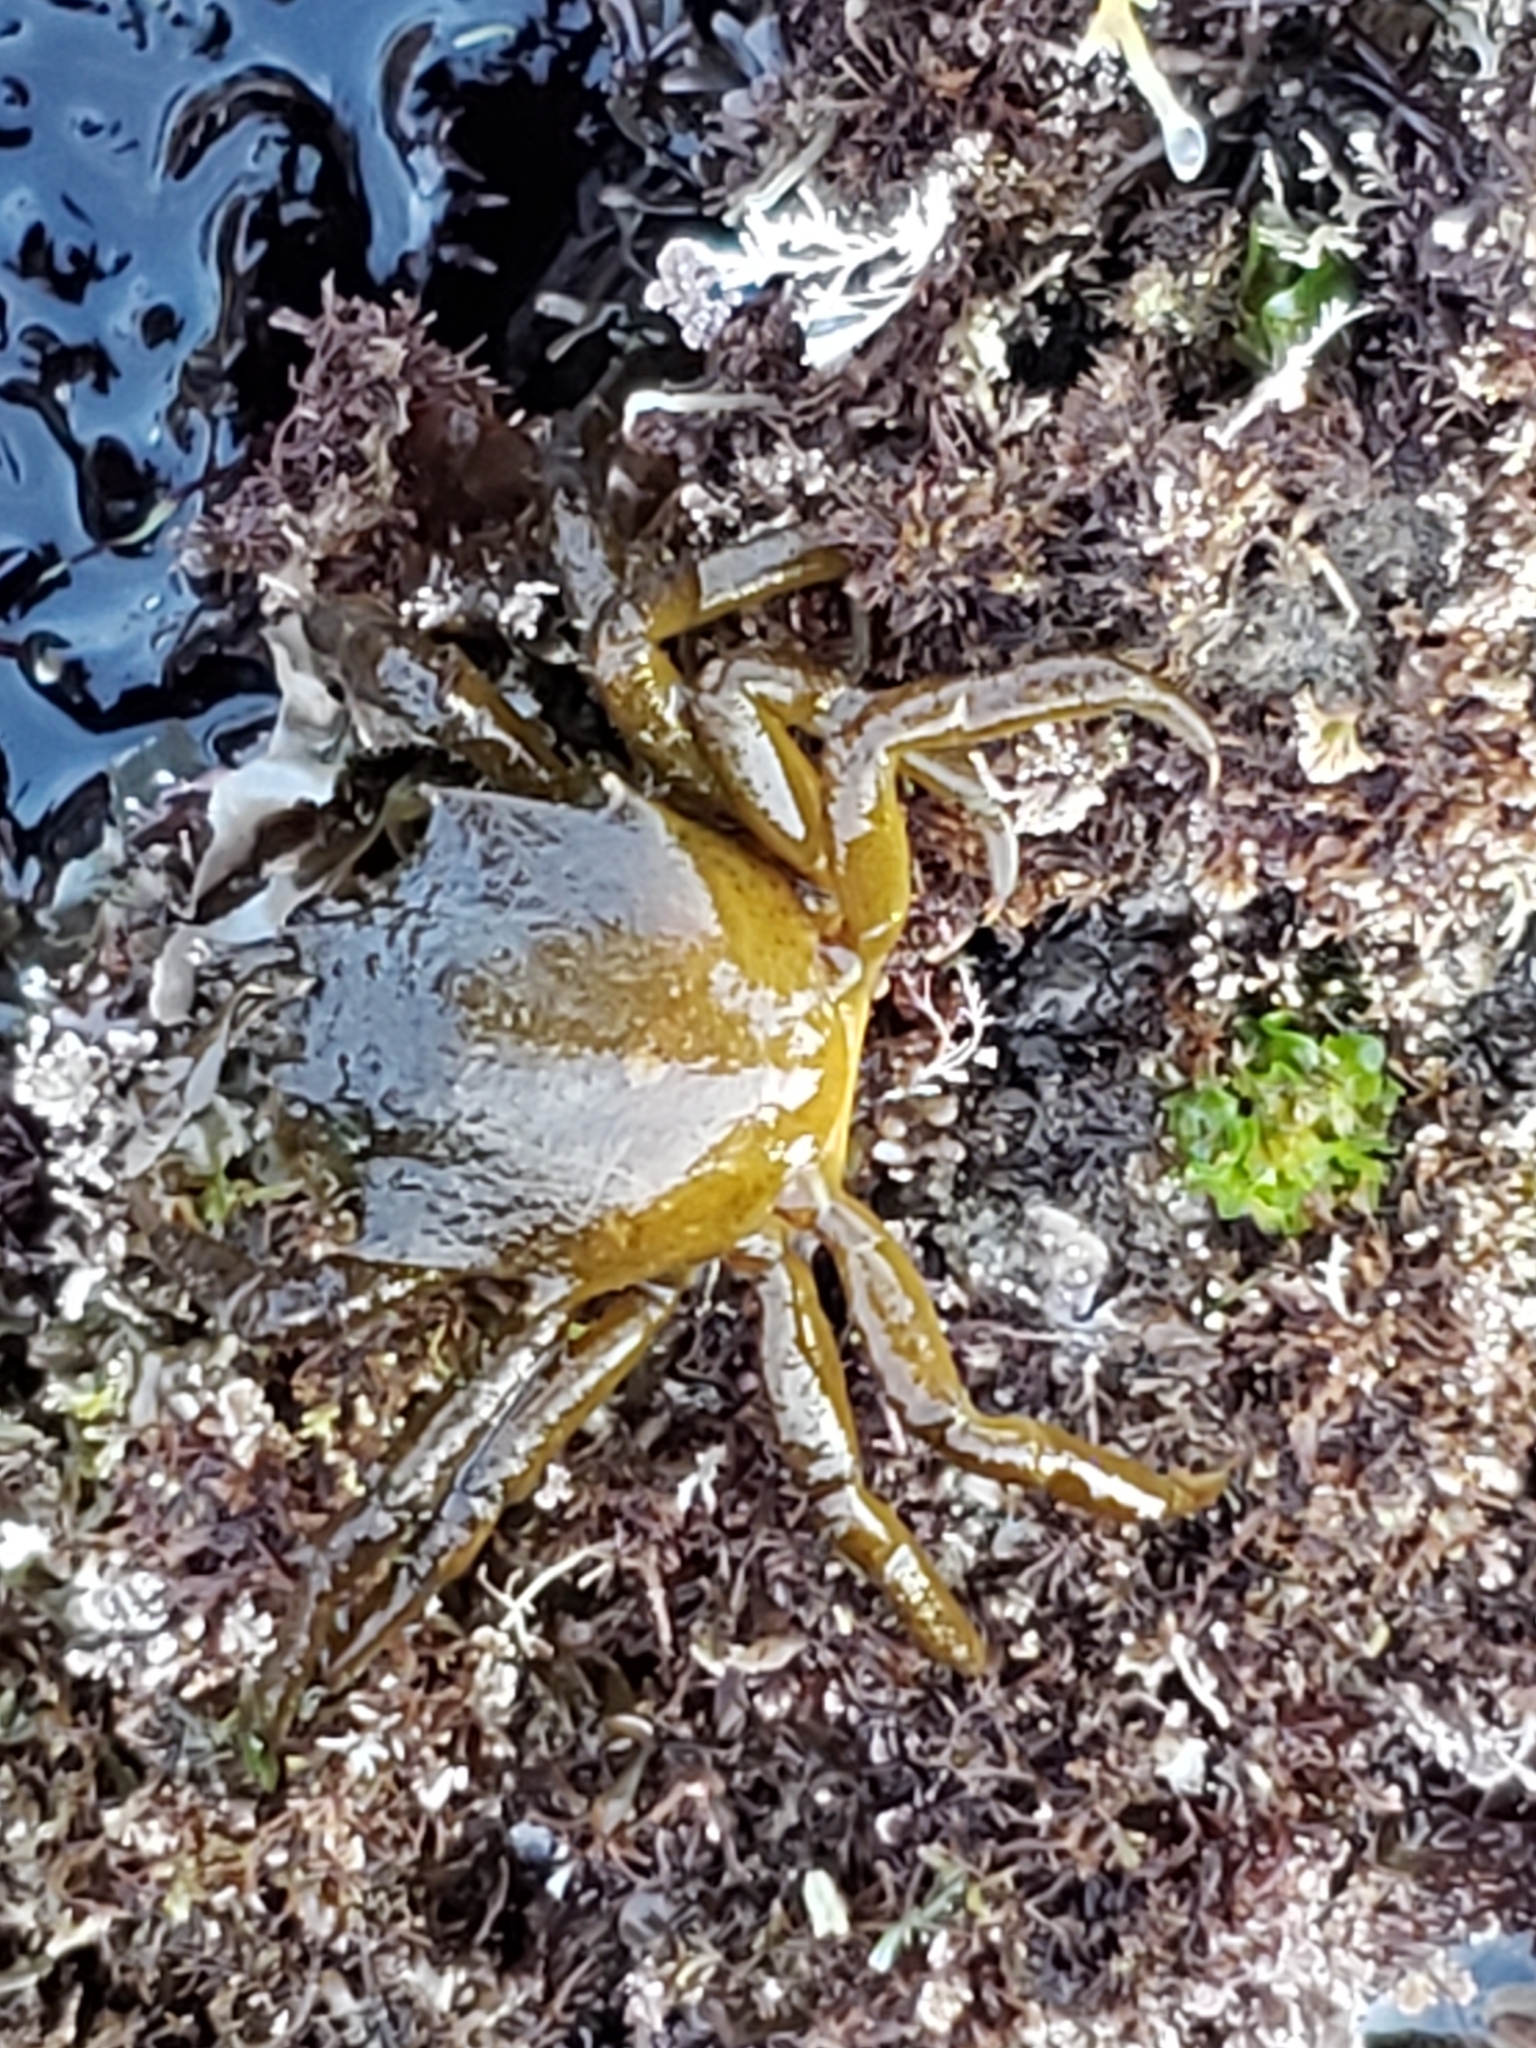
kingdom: Animalia
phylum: Arthropoda
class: Malacostraca
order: Decapoda
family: Epialtidae
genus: Pugettia
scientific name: Pugettia producta
